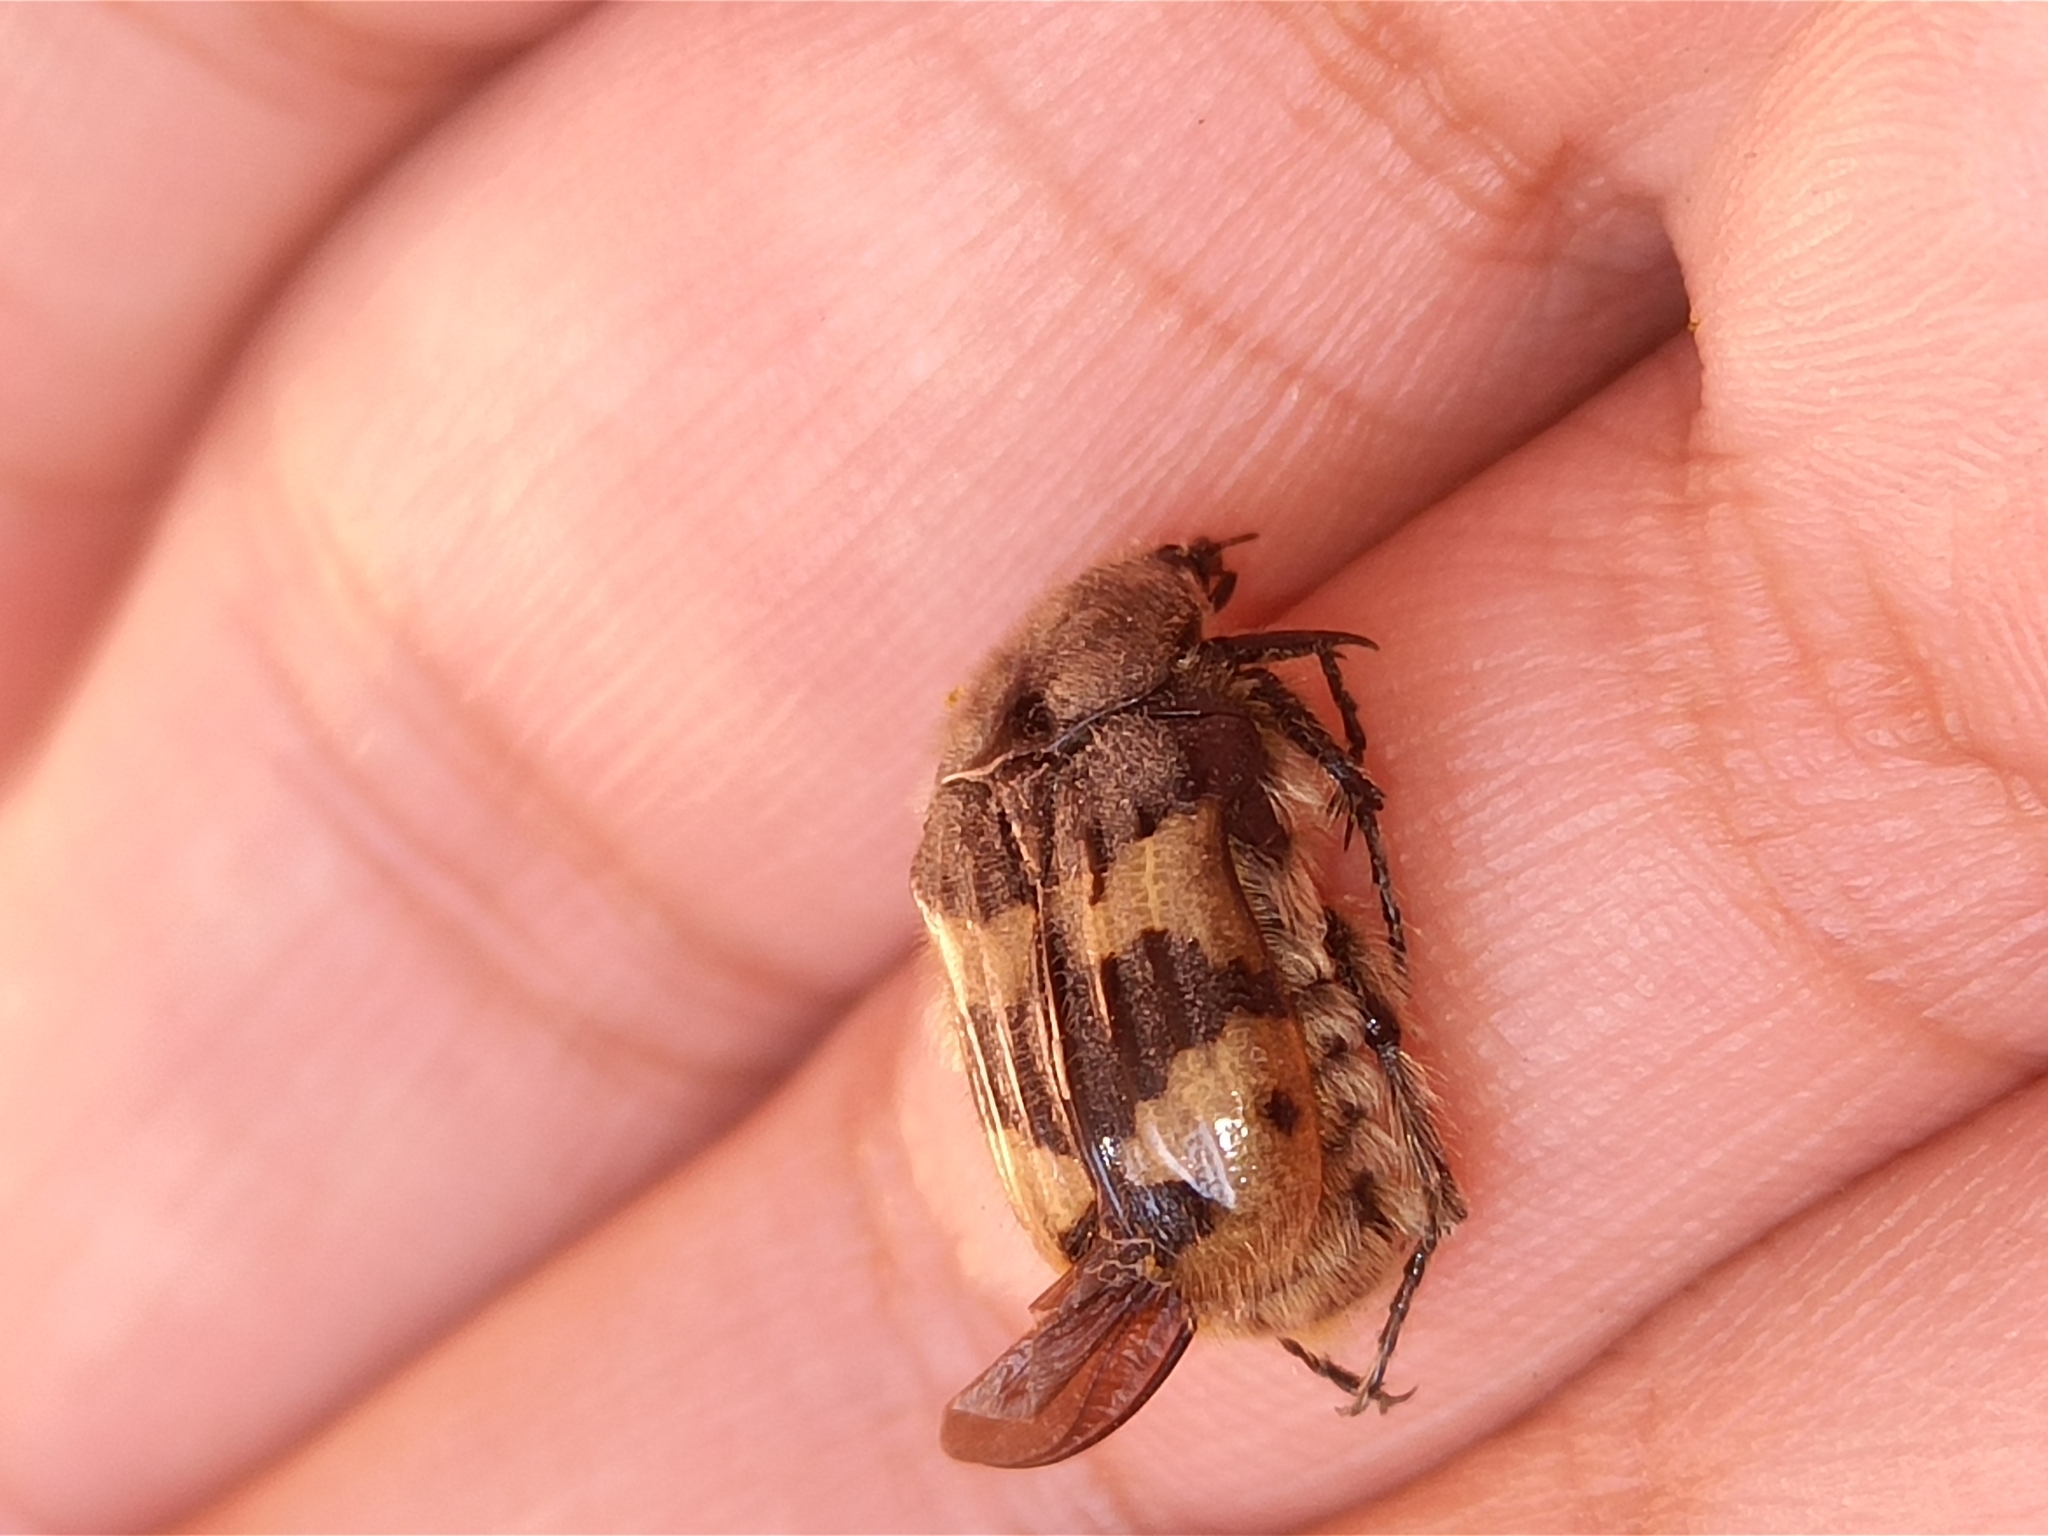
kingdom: Animalia
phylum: Arthropoda
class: Insecta
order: Coleoptera
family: Scarabaeidae
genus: Euphoria
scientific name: Euphoria basalis
